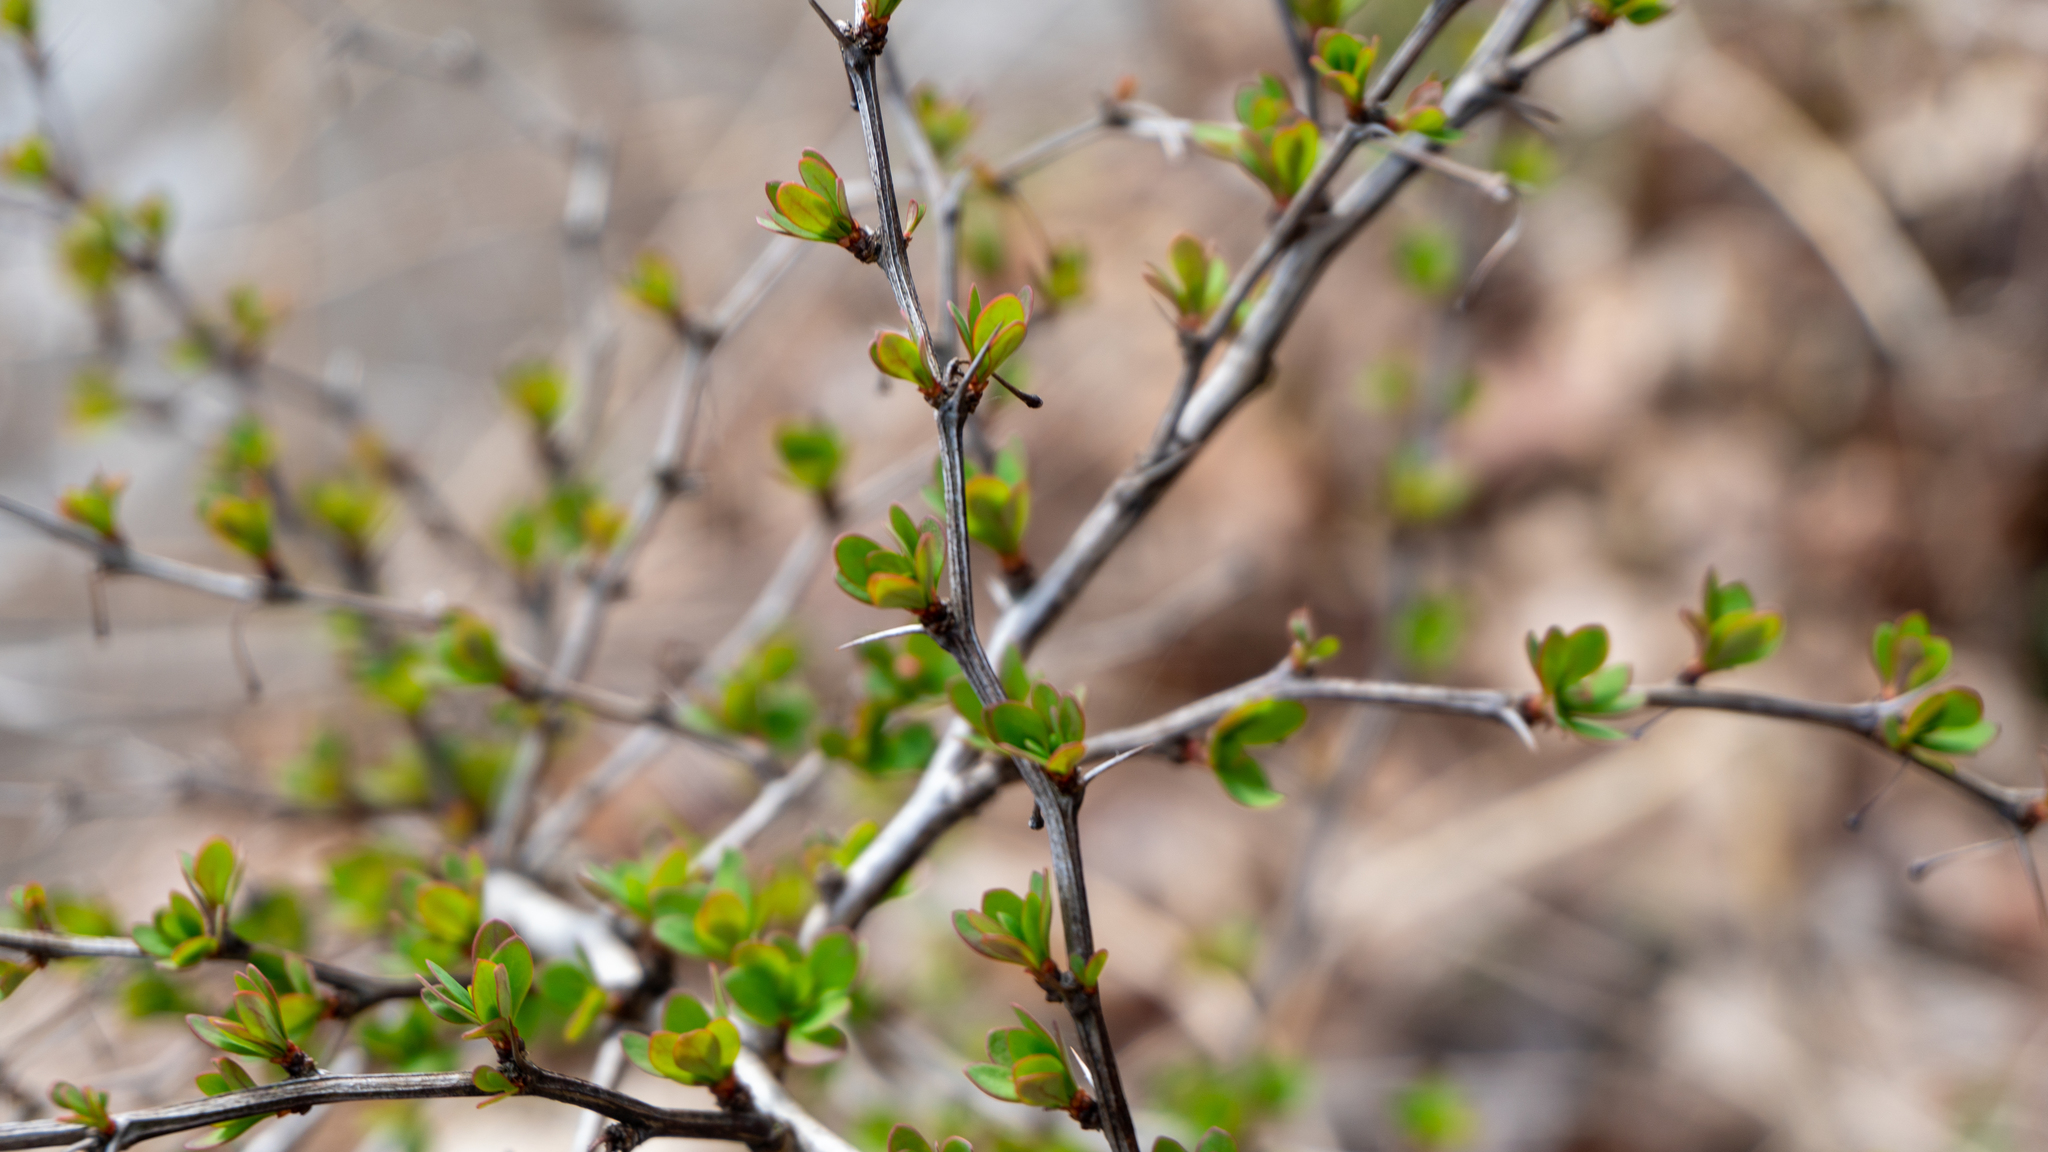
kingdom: Plantae
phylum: Tracheophyta
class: Magnoliopsida
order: Ranunculales
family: Berberidaceae
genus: Berberis
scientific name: Berberis thunbergii
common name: Japanese barberry
